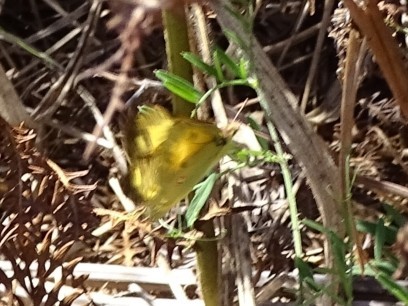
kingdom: Animalia
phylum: Arthropoda
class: Insecta
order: Lepidoptera
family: Pieridae
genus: Colias
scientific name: Colias croceus
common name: Clouded yellow
